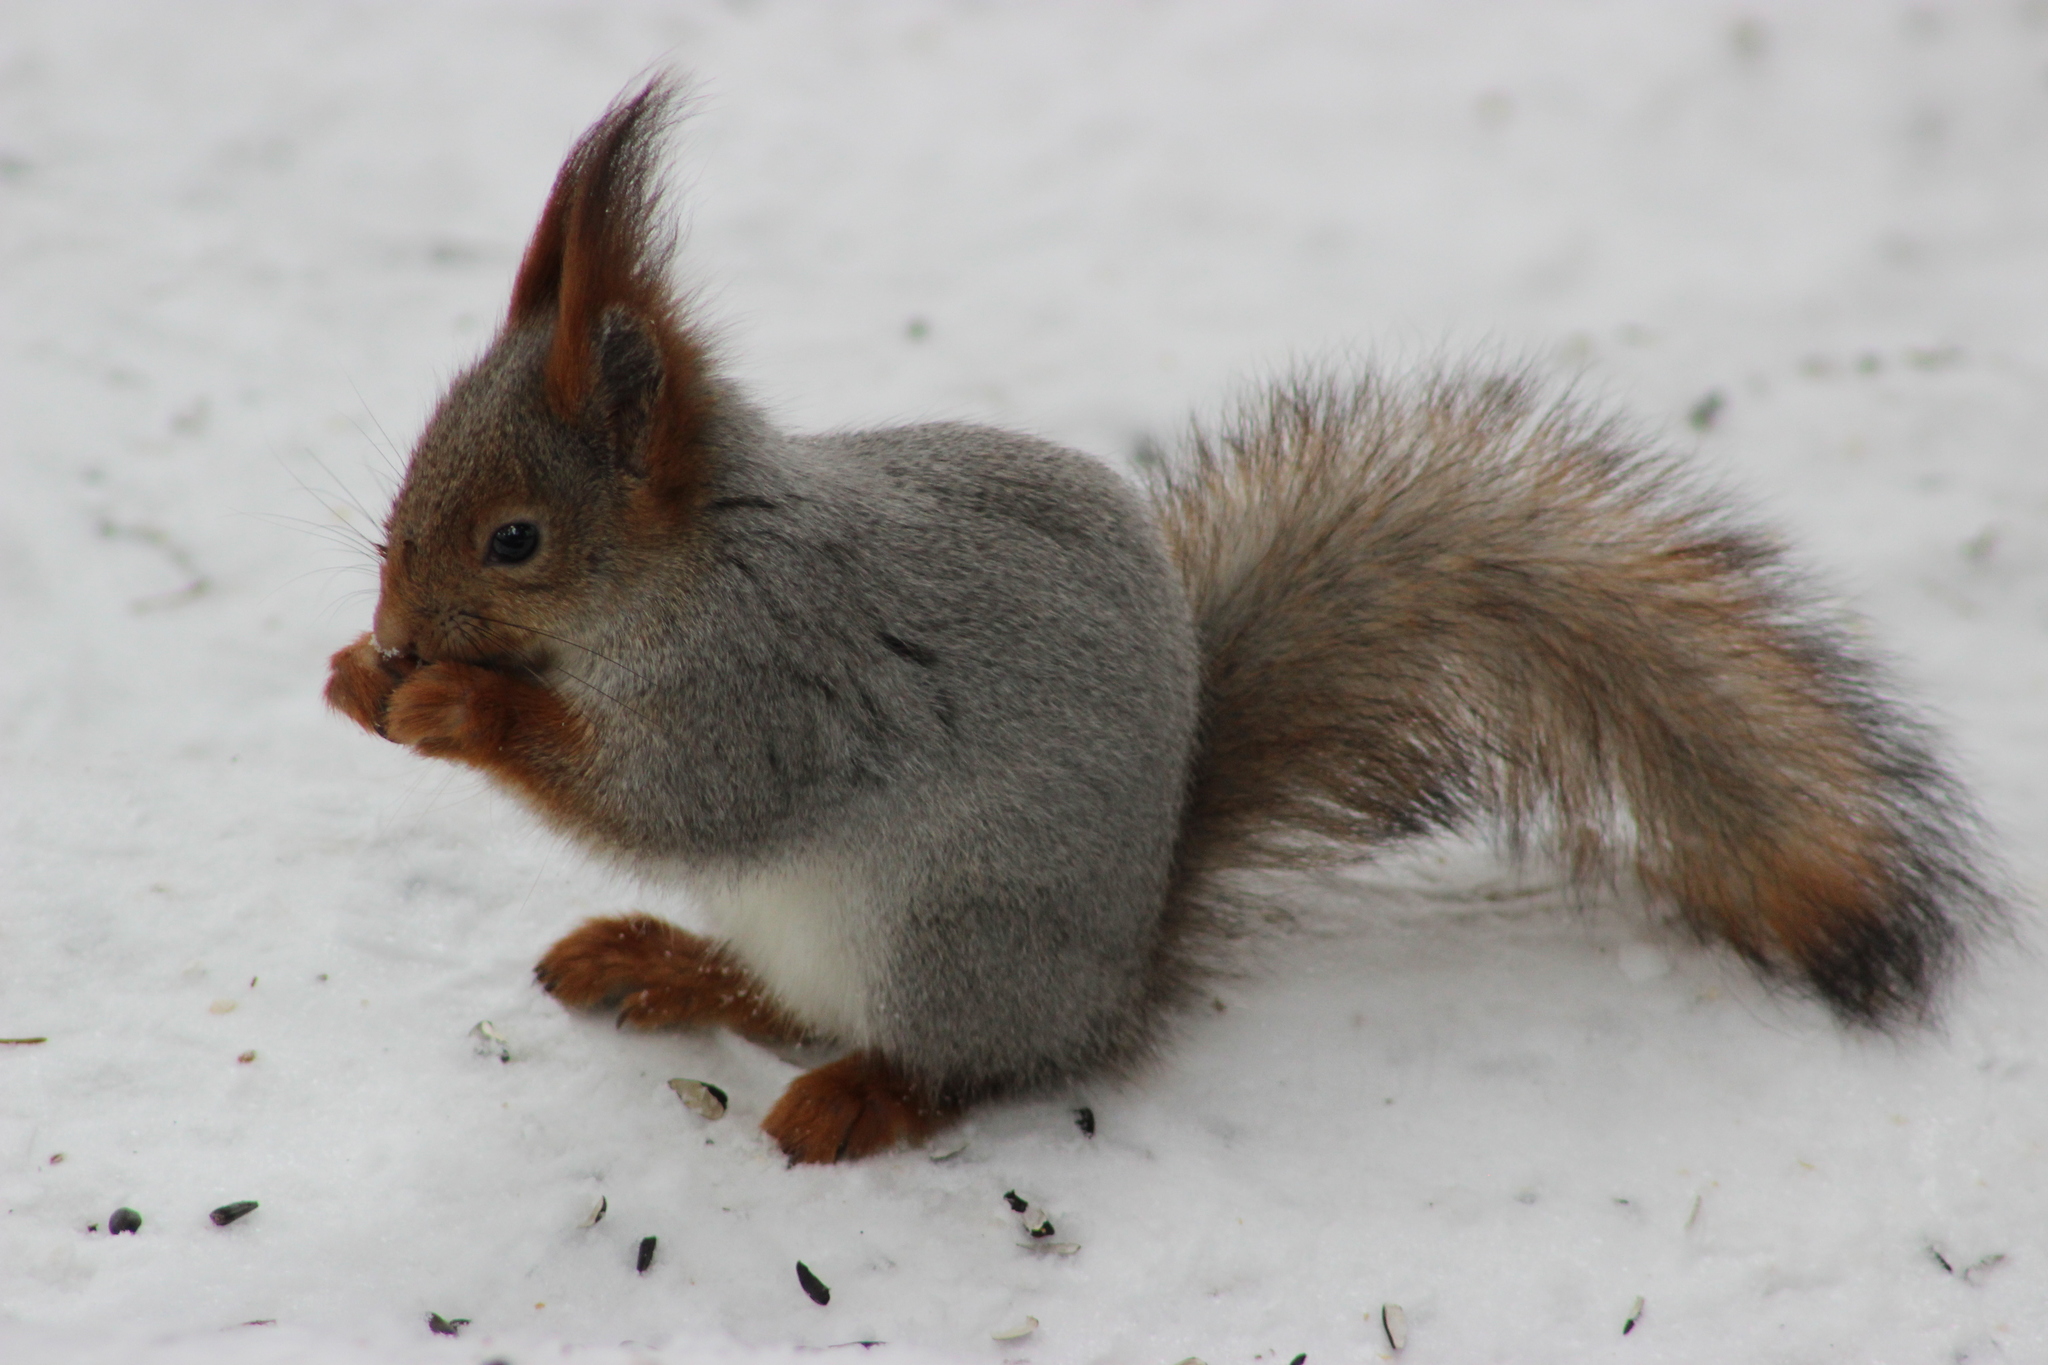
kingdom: Animalia
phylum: Chordata
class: Mammalia
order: Rodentia
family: Sciuridae
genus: Sciurus
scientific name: Sciurus vulgaris
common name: Eurasian red squirrel
